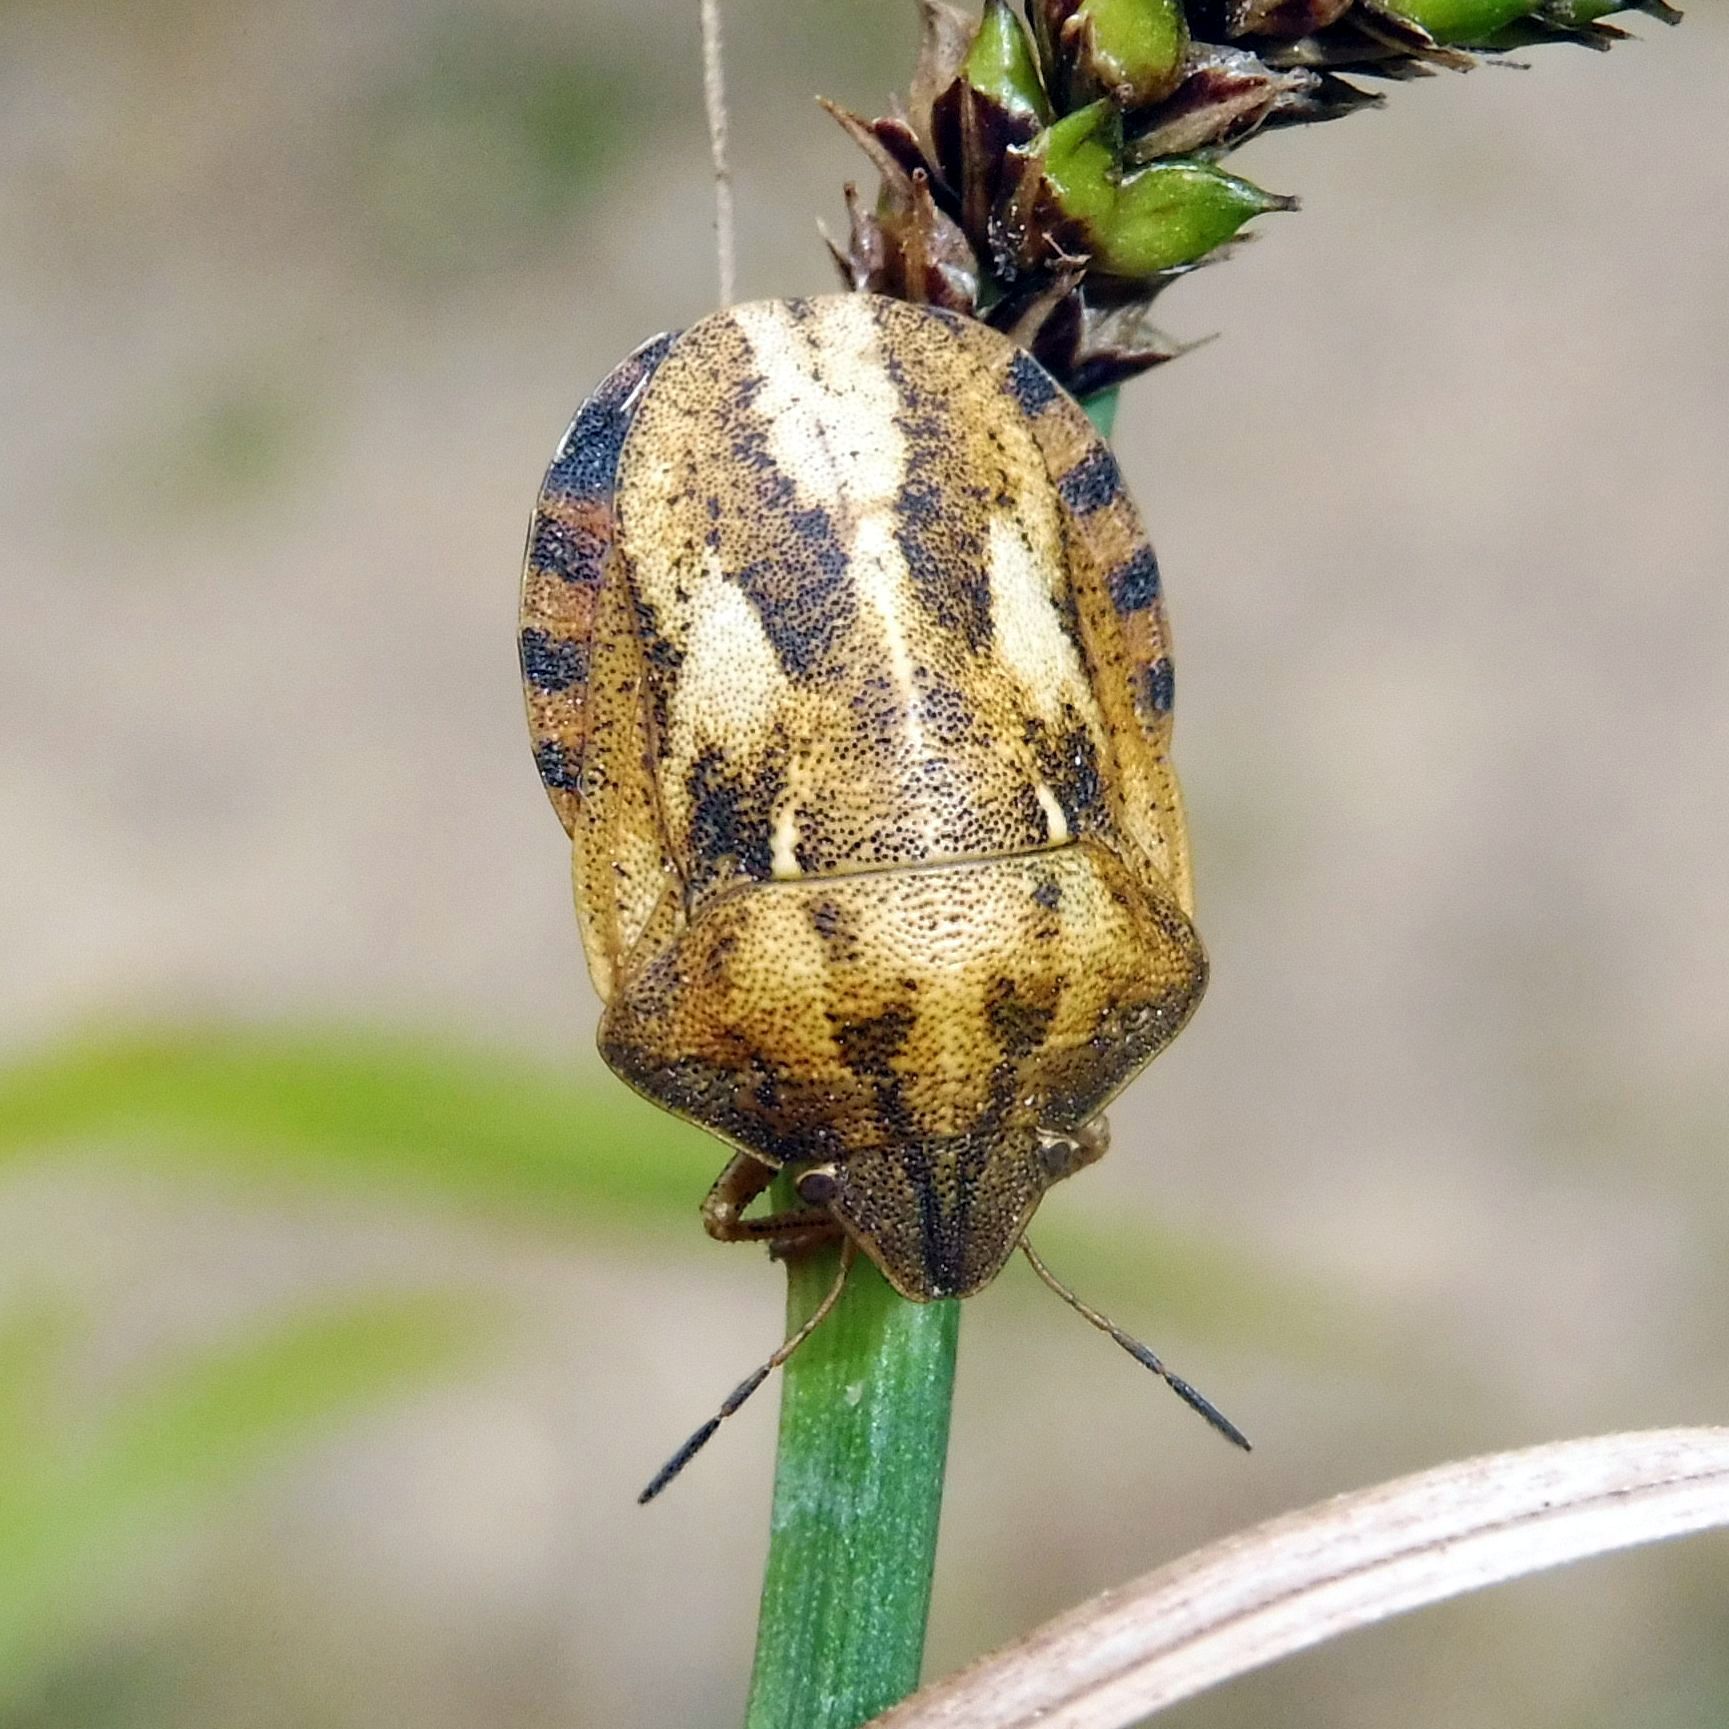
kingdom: Animalia
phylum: Arthropoda
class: Insecta
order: Hemiptera
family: Scutelleridae
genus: Eurygaster
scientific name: Eurygaster testudinaria
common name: Tortoise bug
